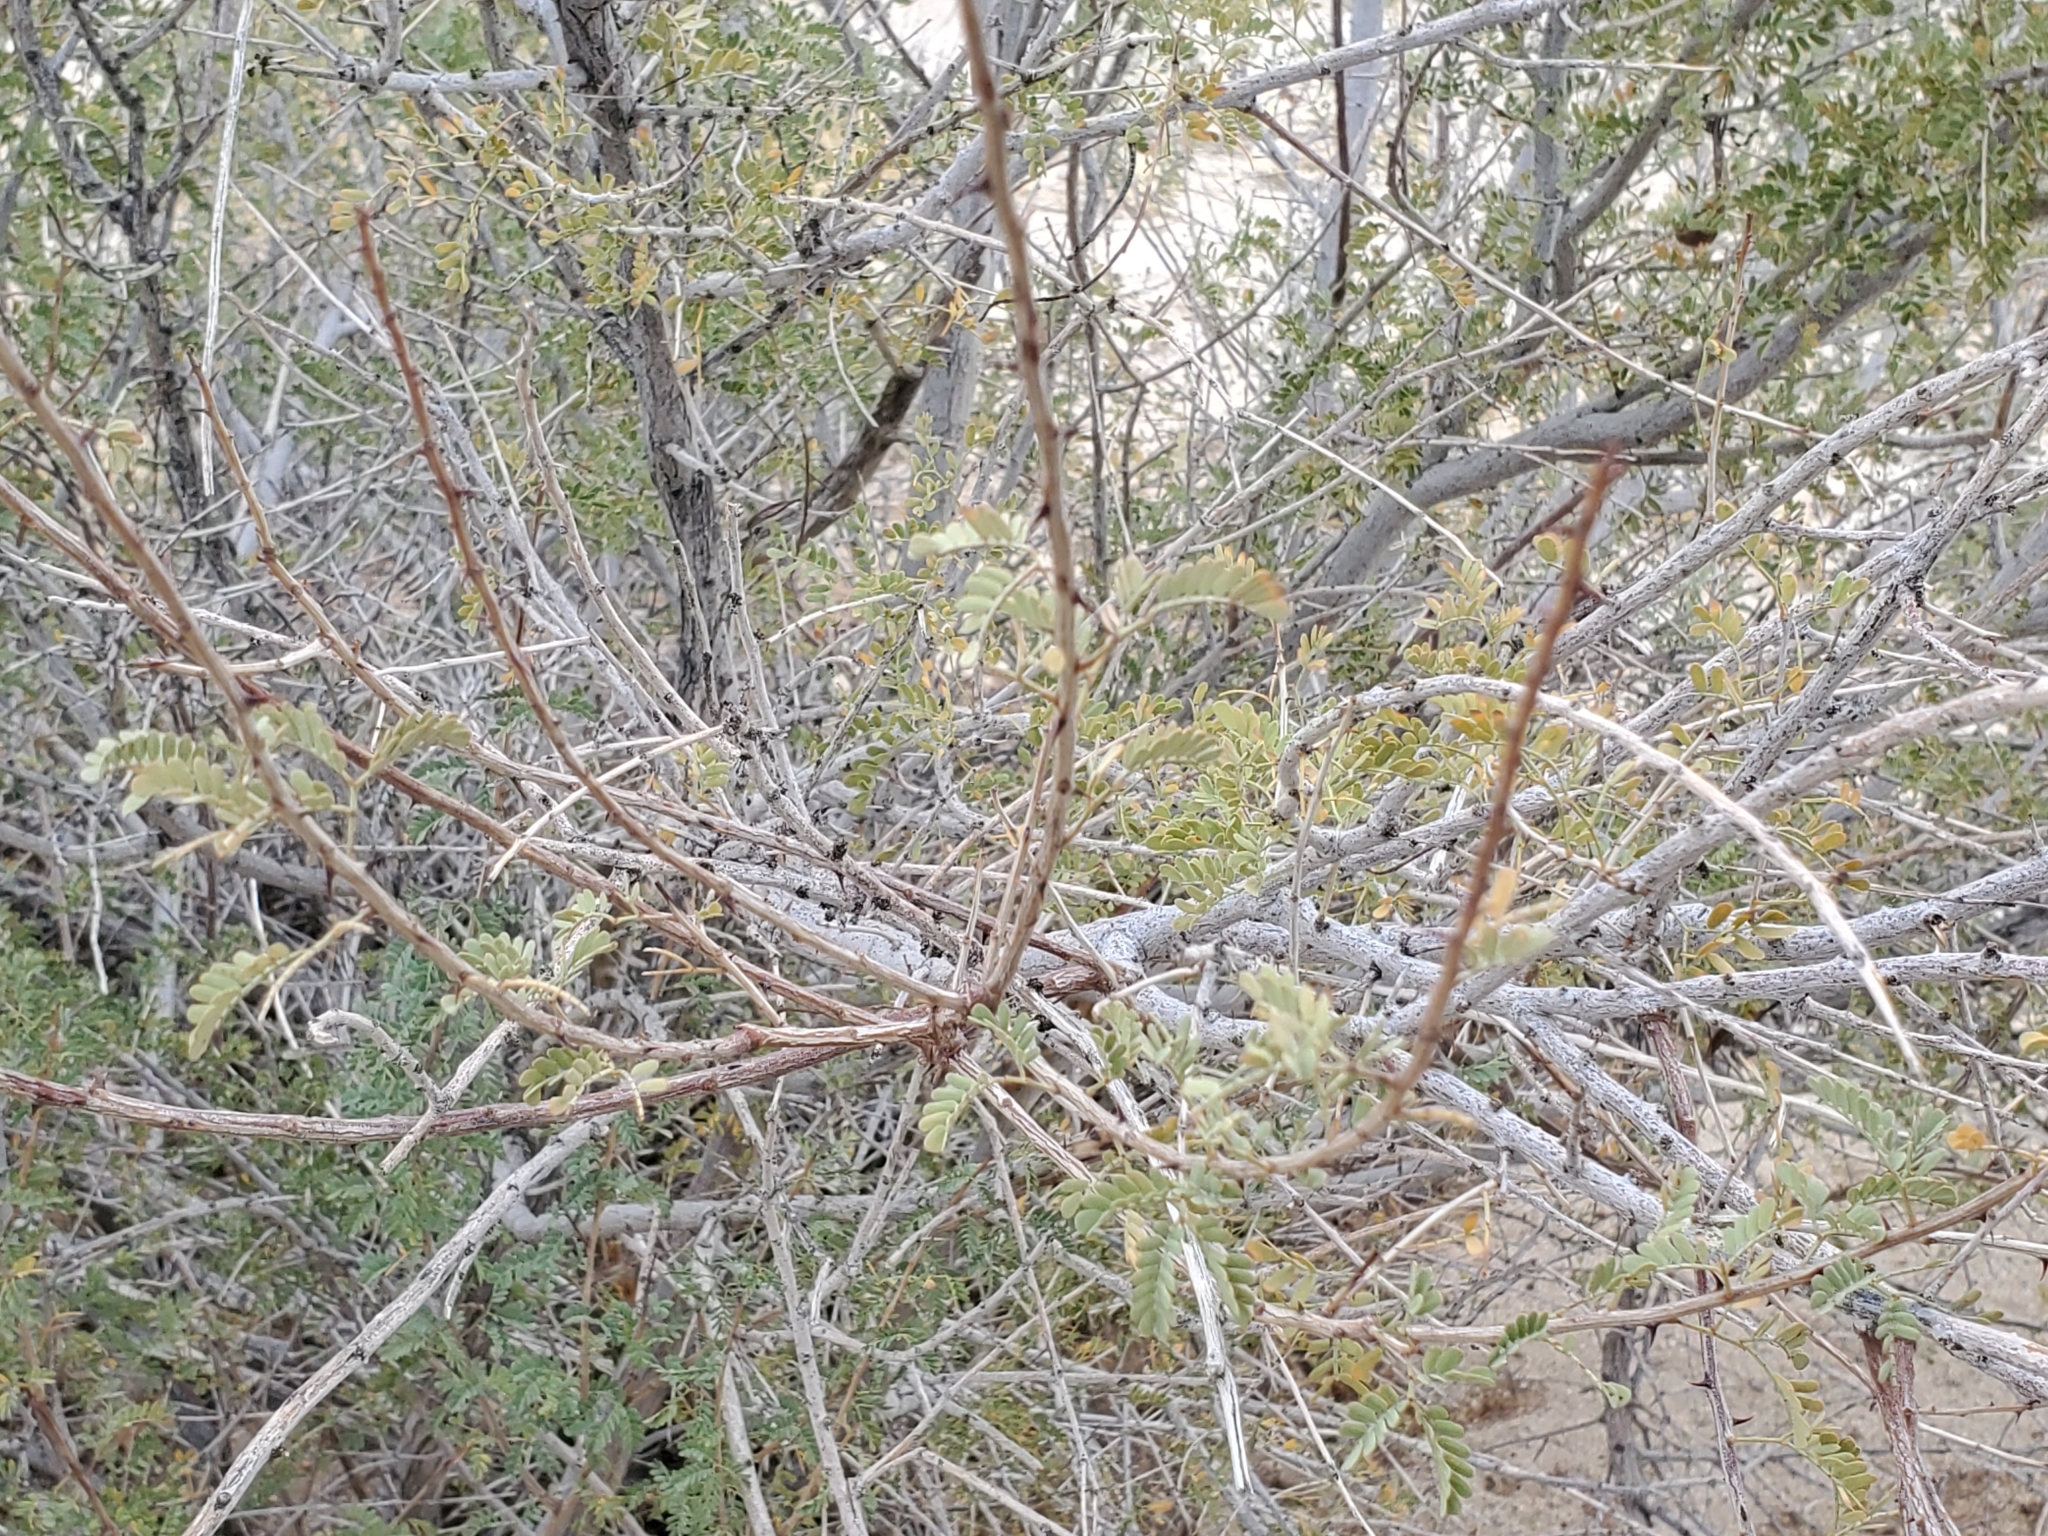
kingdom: Plantae
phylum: Tracheophyta
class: Magnoliopsida
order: Fabales
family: Fabaceae
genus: Senegalia
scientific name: Senegalia greggii
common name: Texas-mimosa
